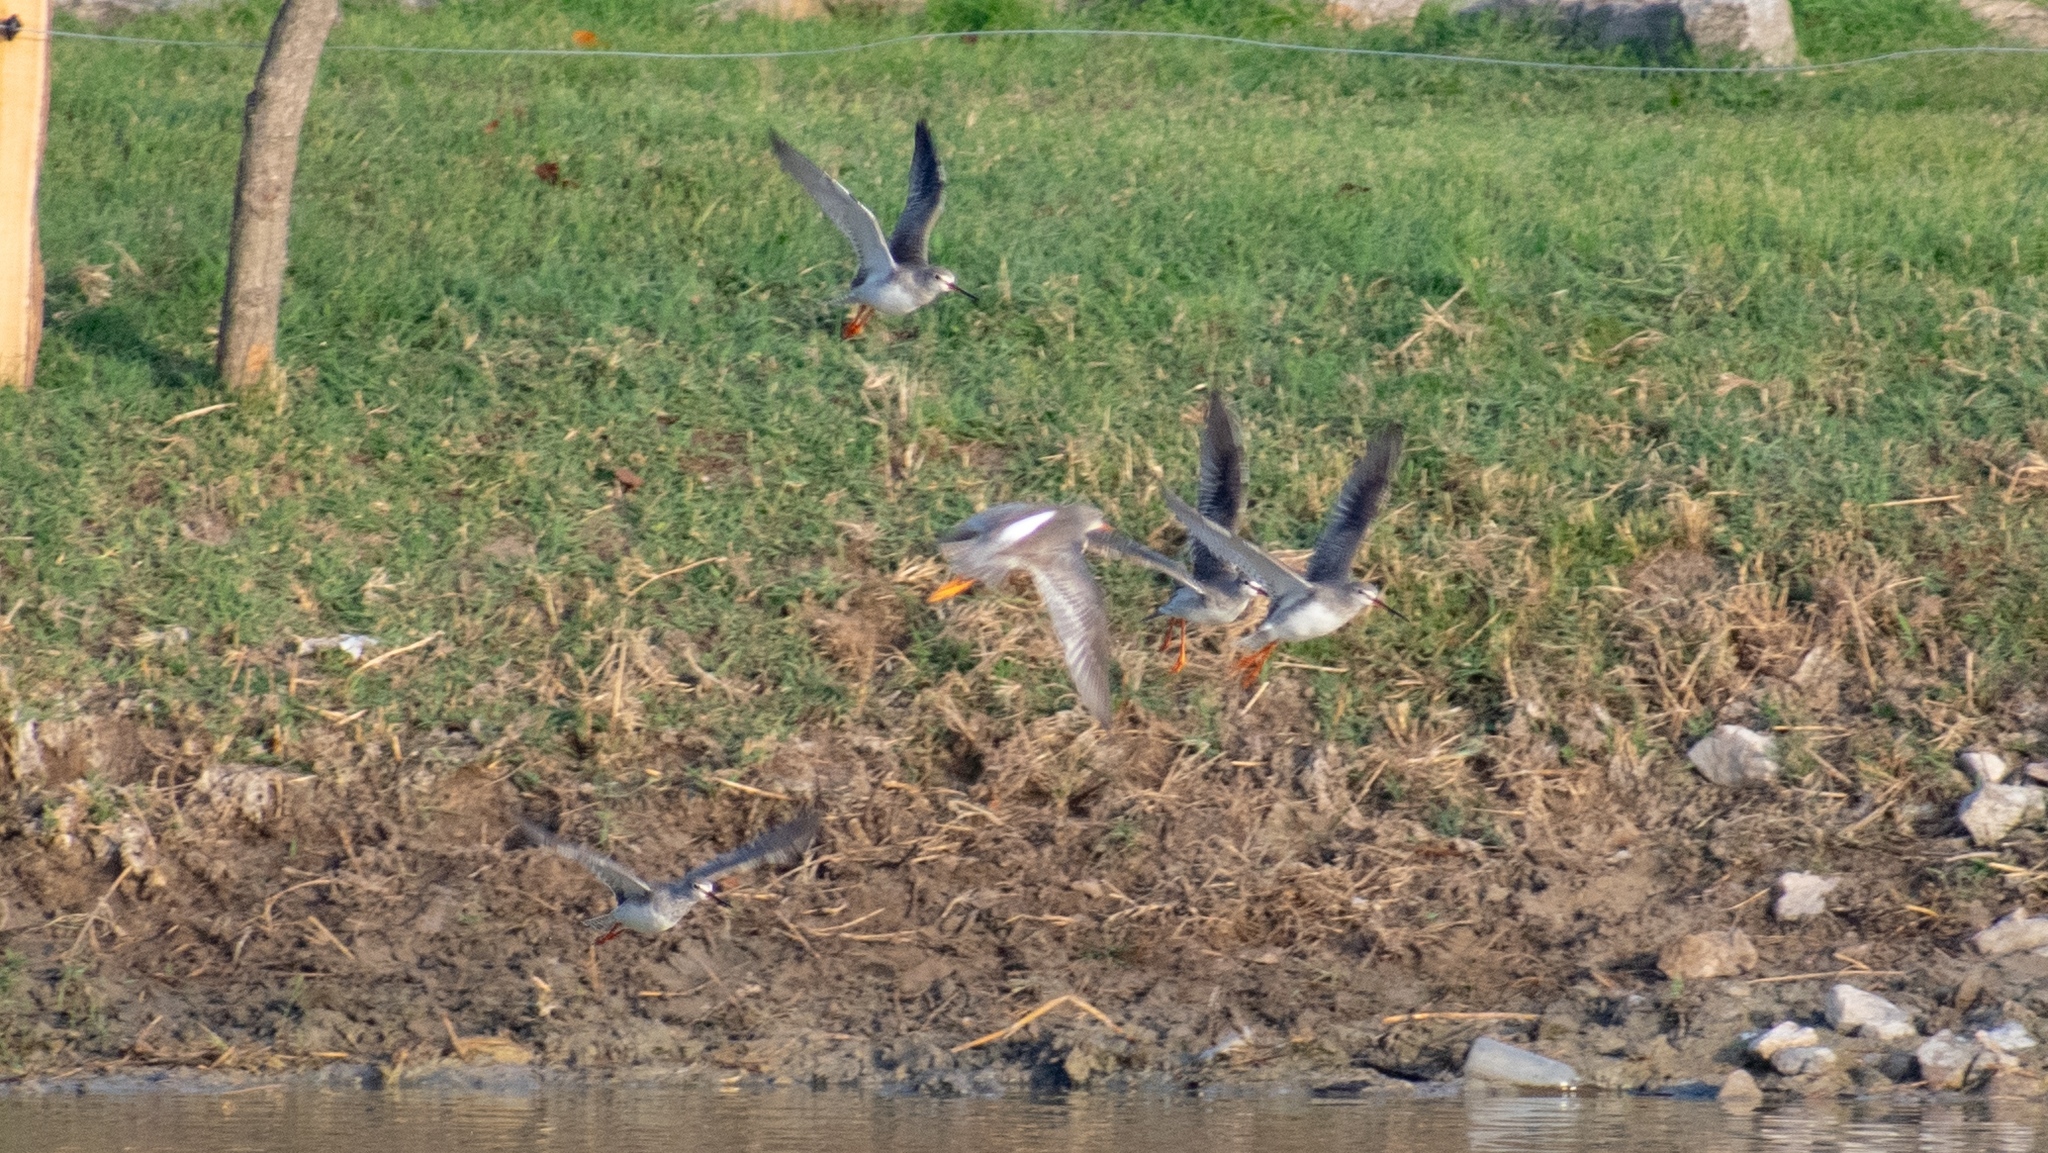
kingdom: Animalia
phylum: Chordata
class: Aves
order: Charadriiformes
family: Scolopacidae
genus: Tringa
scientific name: Tringa erythropus
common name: Spotted redshank
